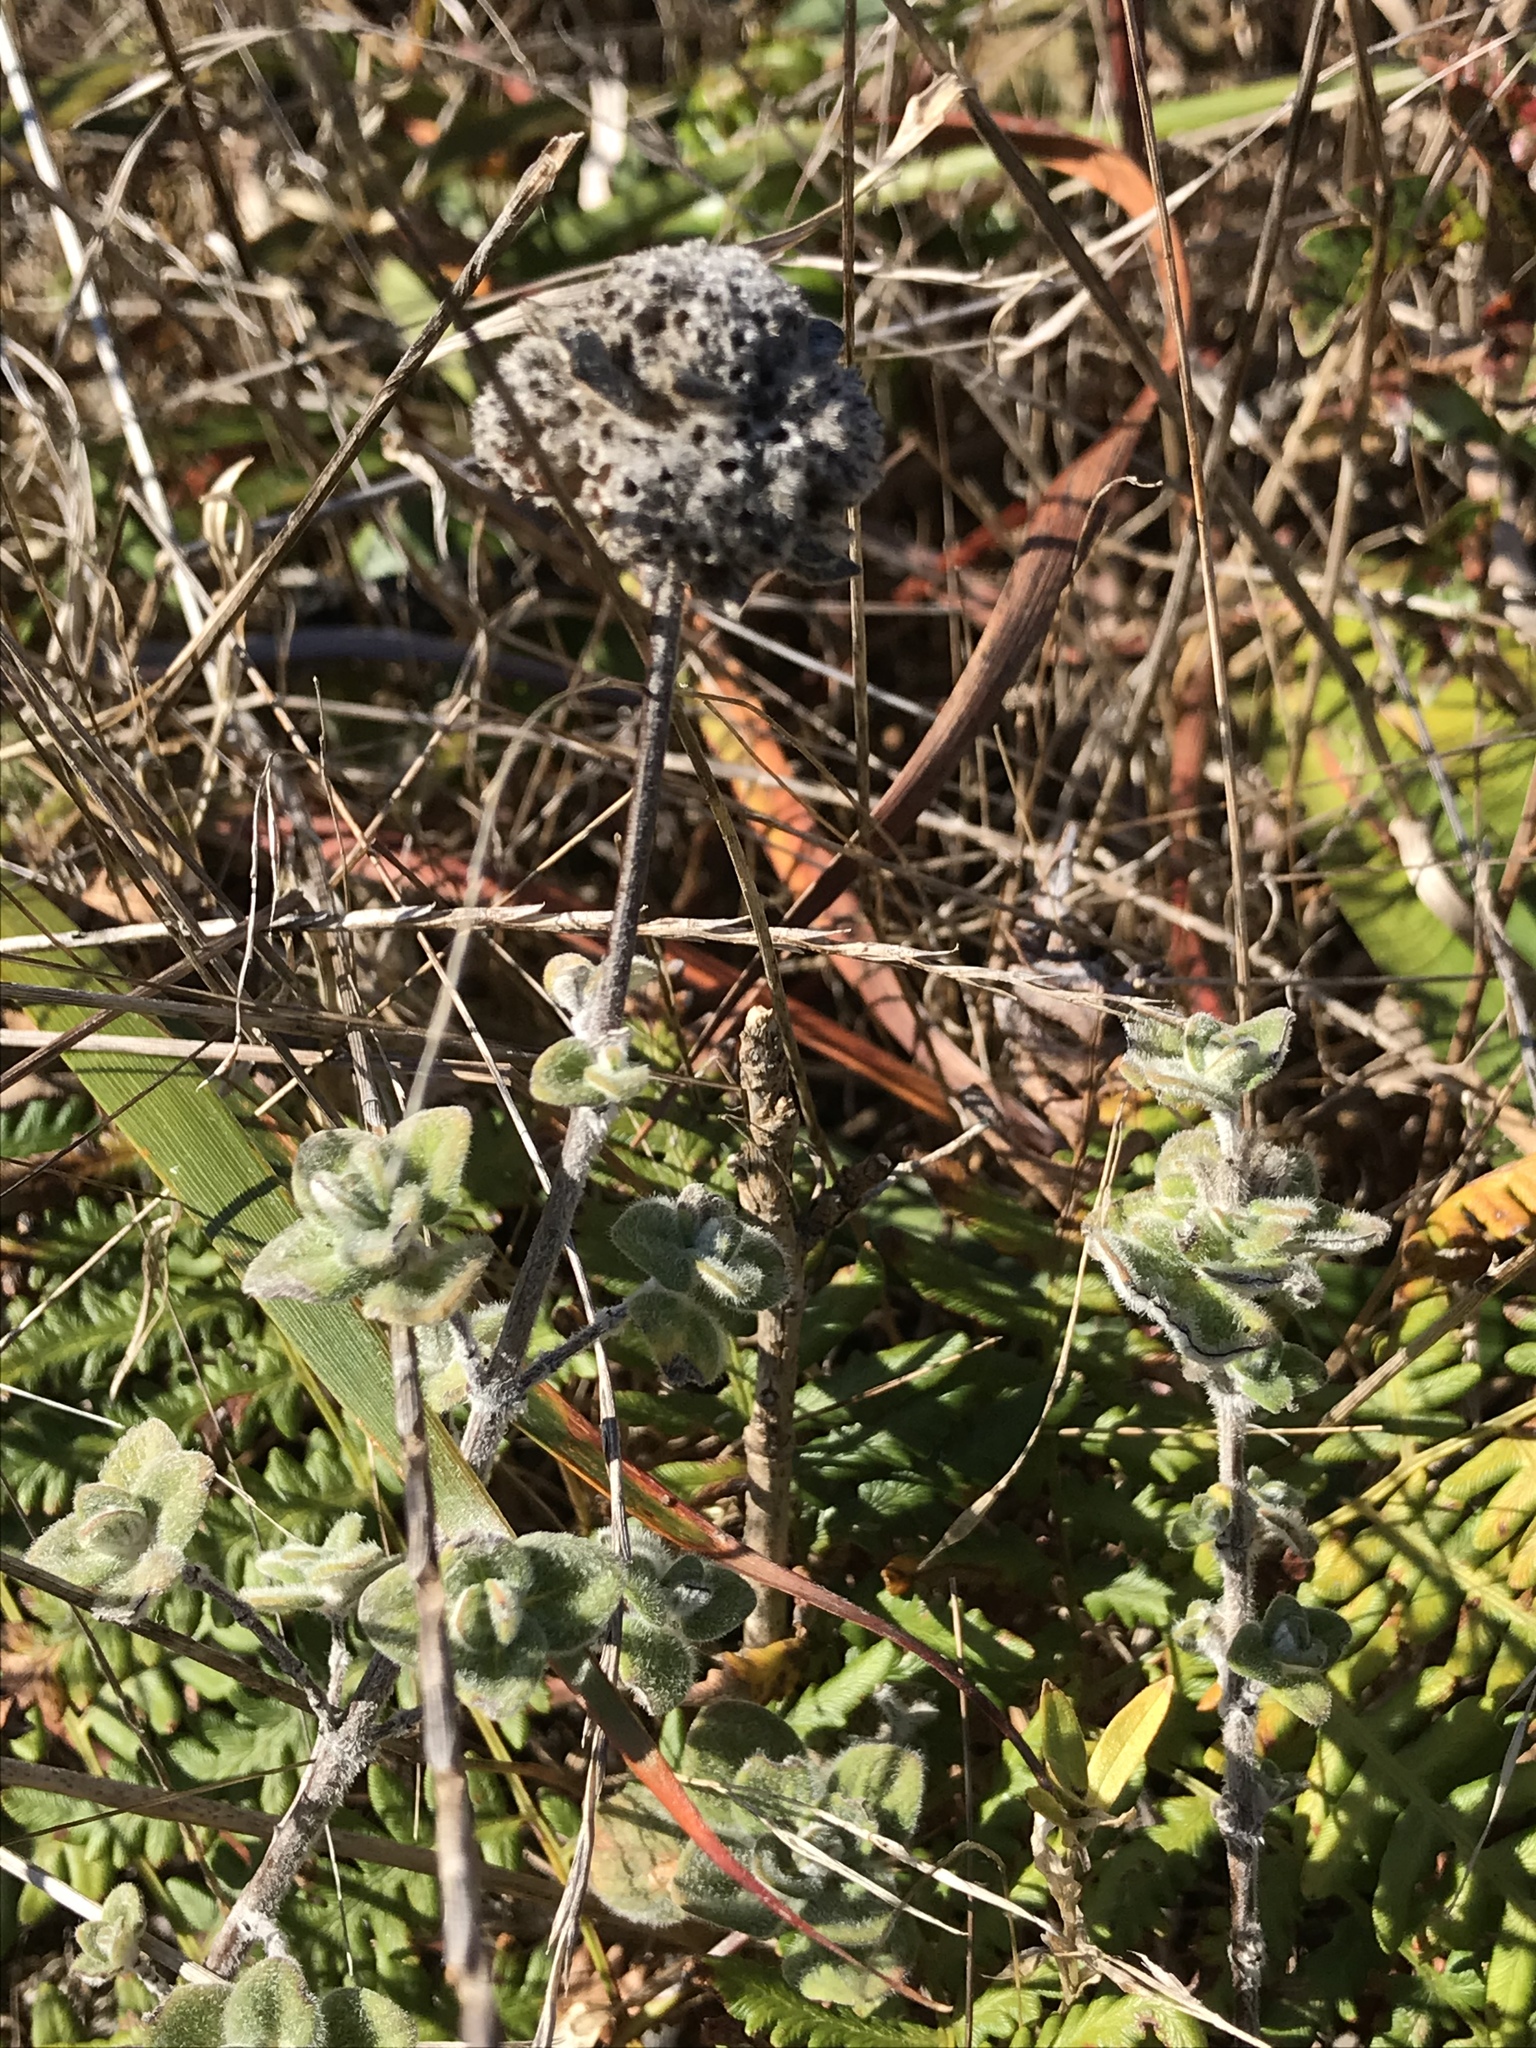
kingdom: Plantae
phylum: Tracheophyta
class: Magnoliopsida
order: Lamiales
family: Lamiaceae
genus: Monardella
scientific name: Monardella odoratissima
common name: Pacific monardella
